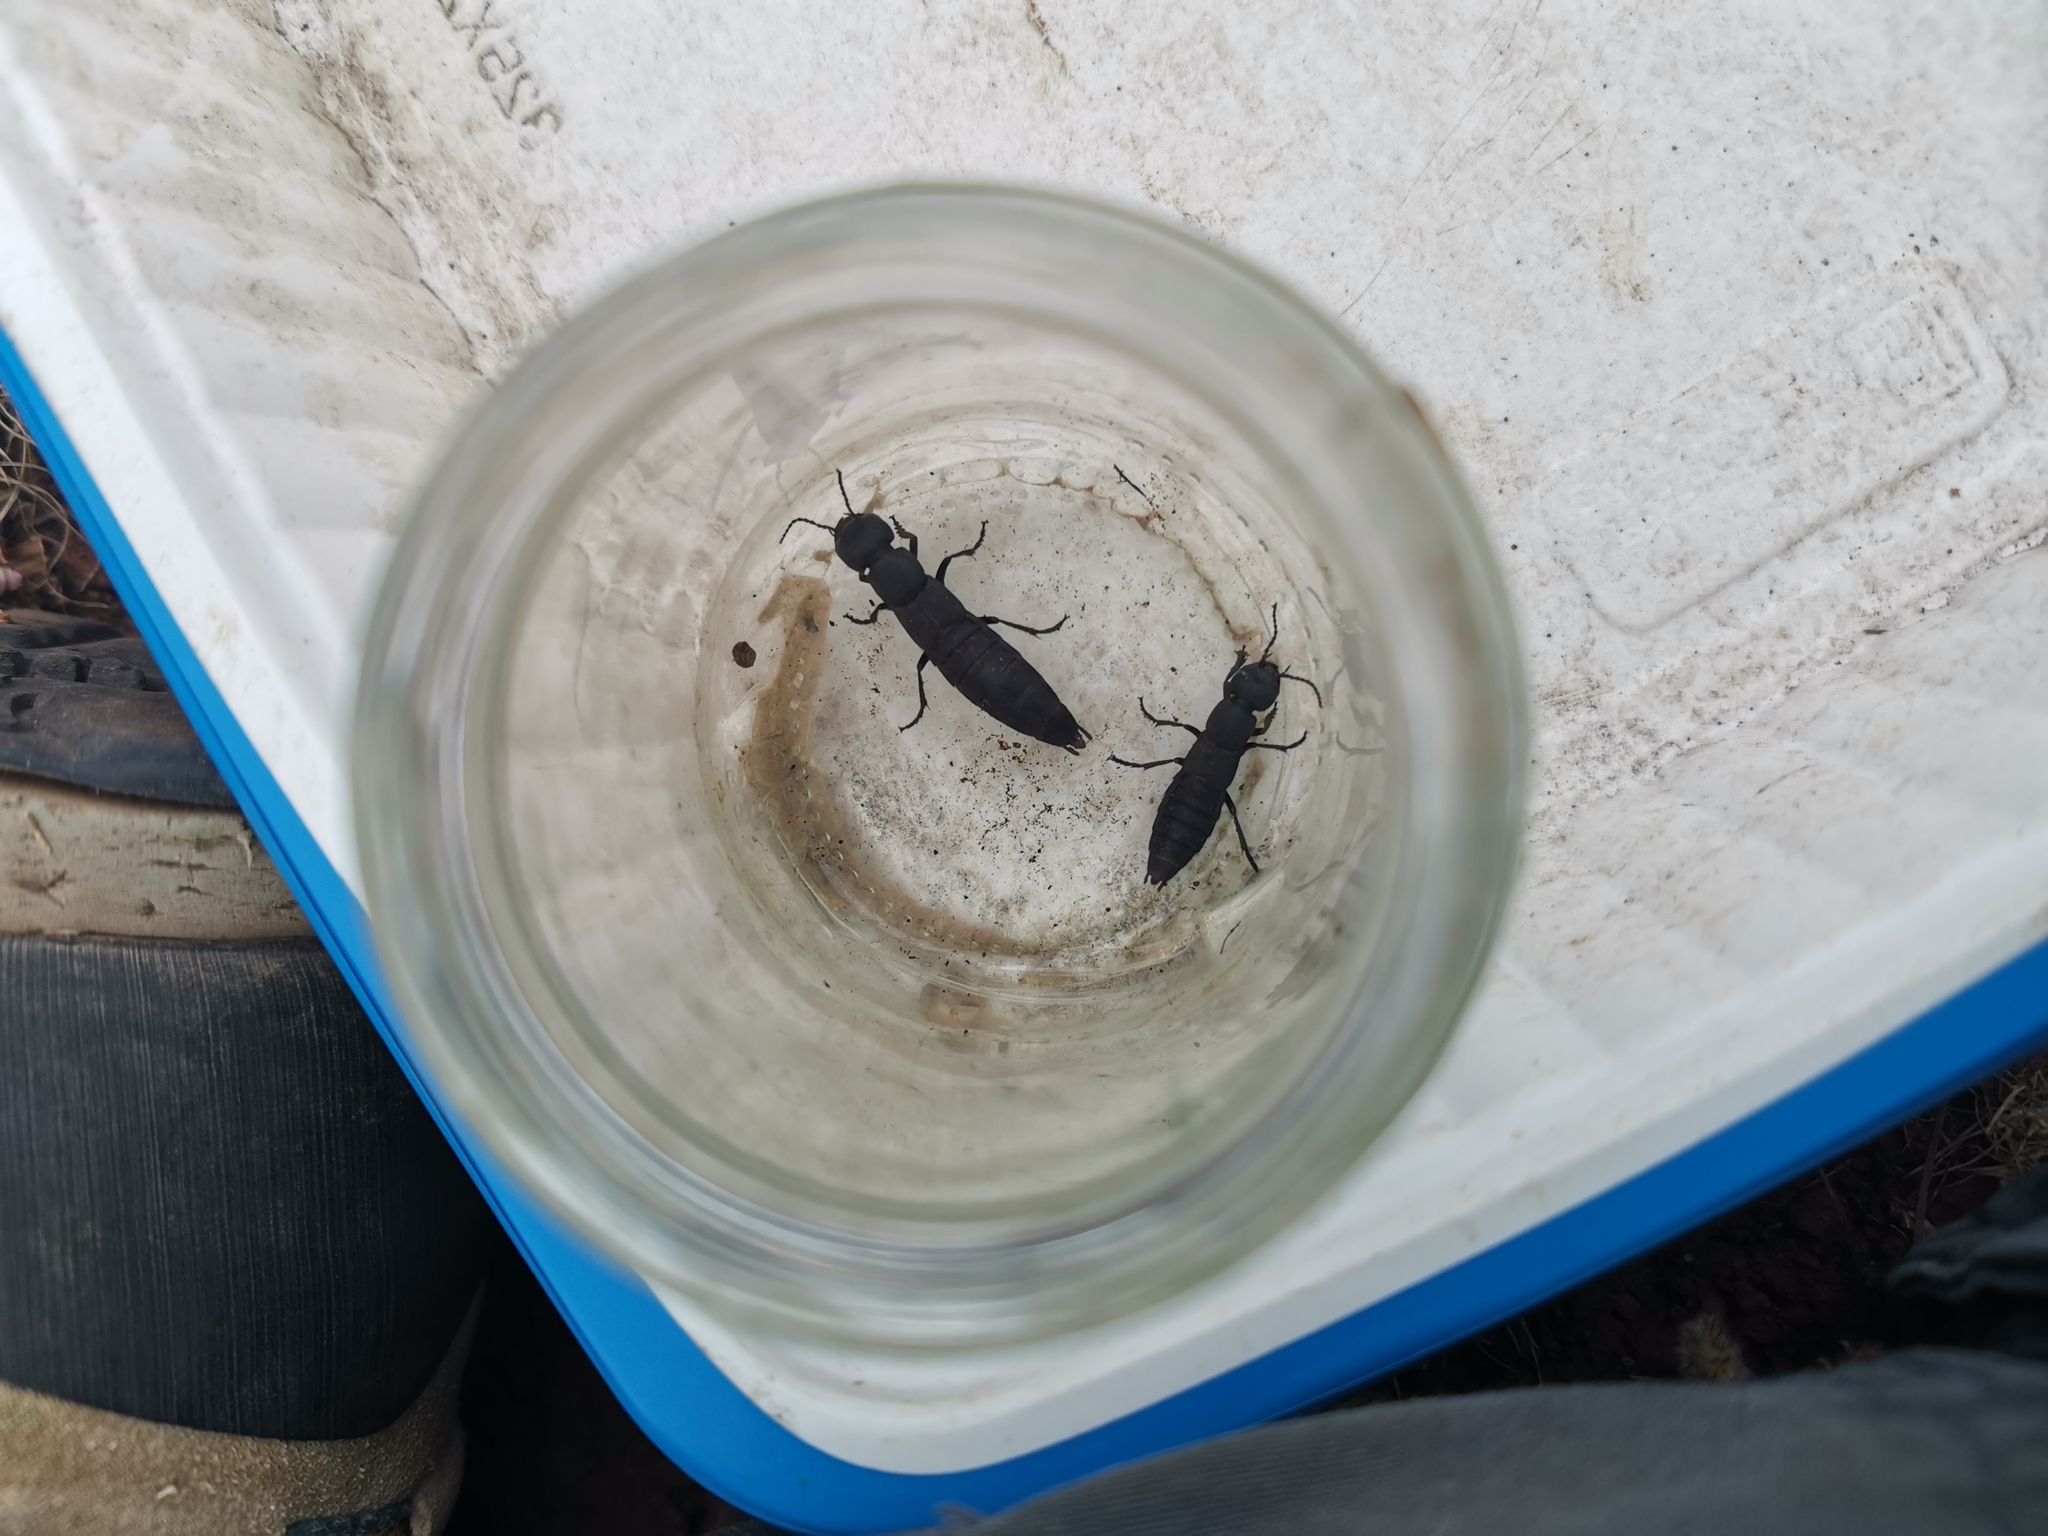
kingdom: Animalia
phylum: Arthropoda
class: Insecta
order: Coleoptera
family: Staphylinidae
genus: Ocypus
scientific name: Ocypus olens
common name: Devil's coach-horse
